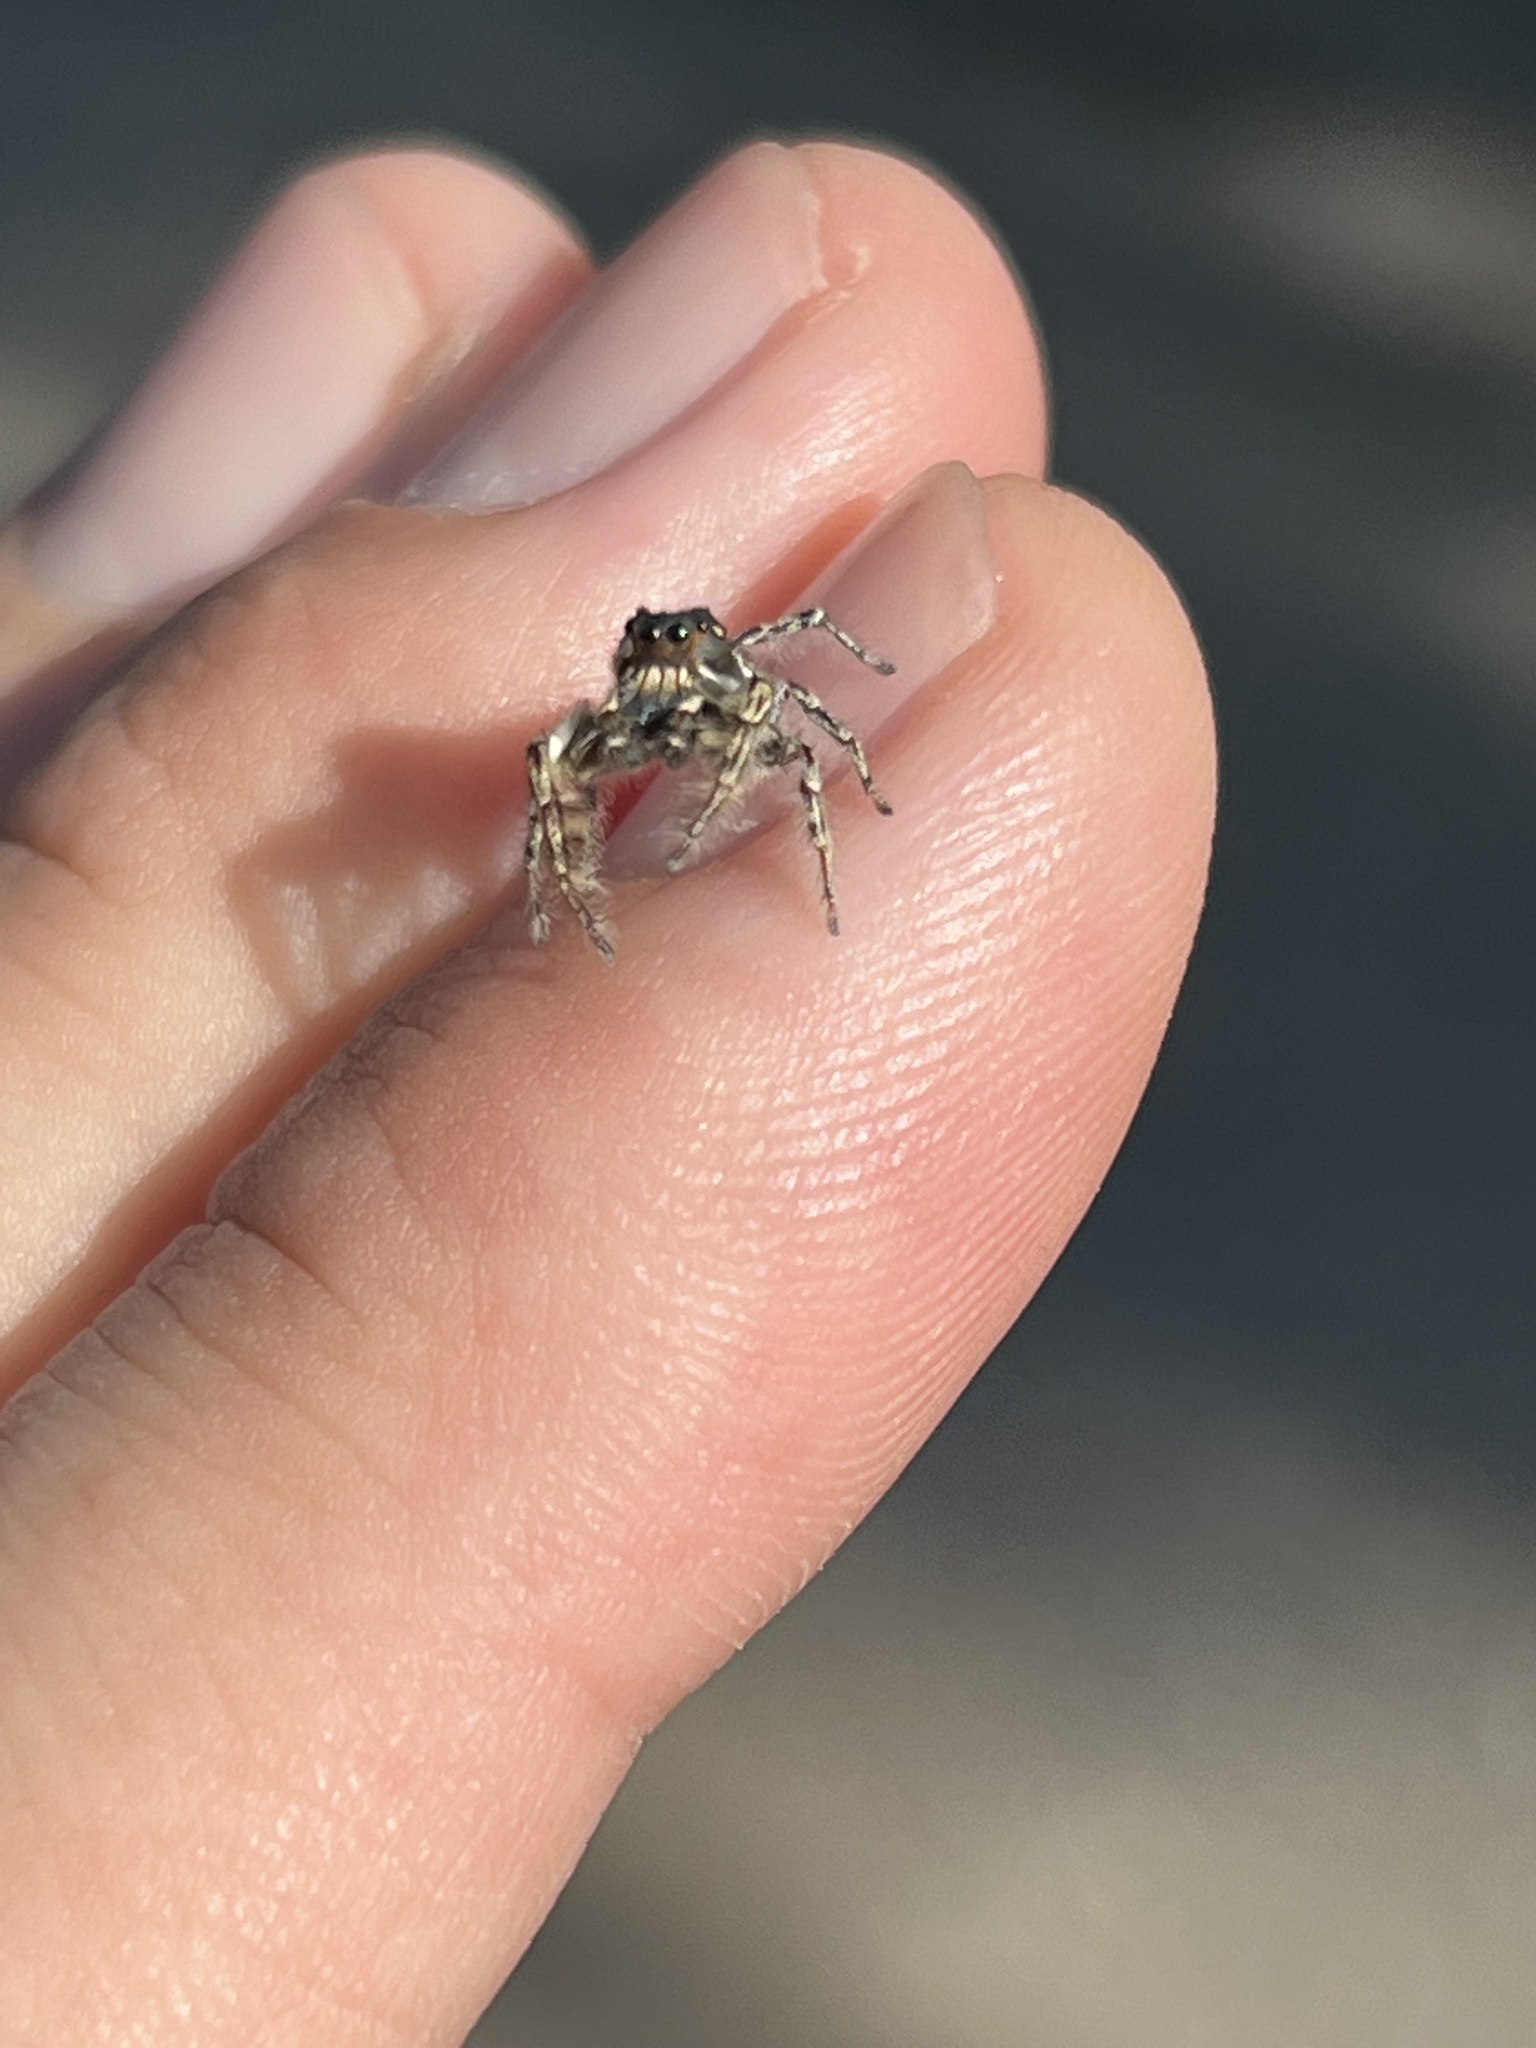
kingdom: Animalia
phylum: Arthropoda
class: Arachnida
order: Araneae
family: Salticidae
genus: Phidippus
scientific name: Phidippus putnami
